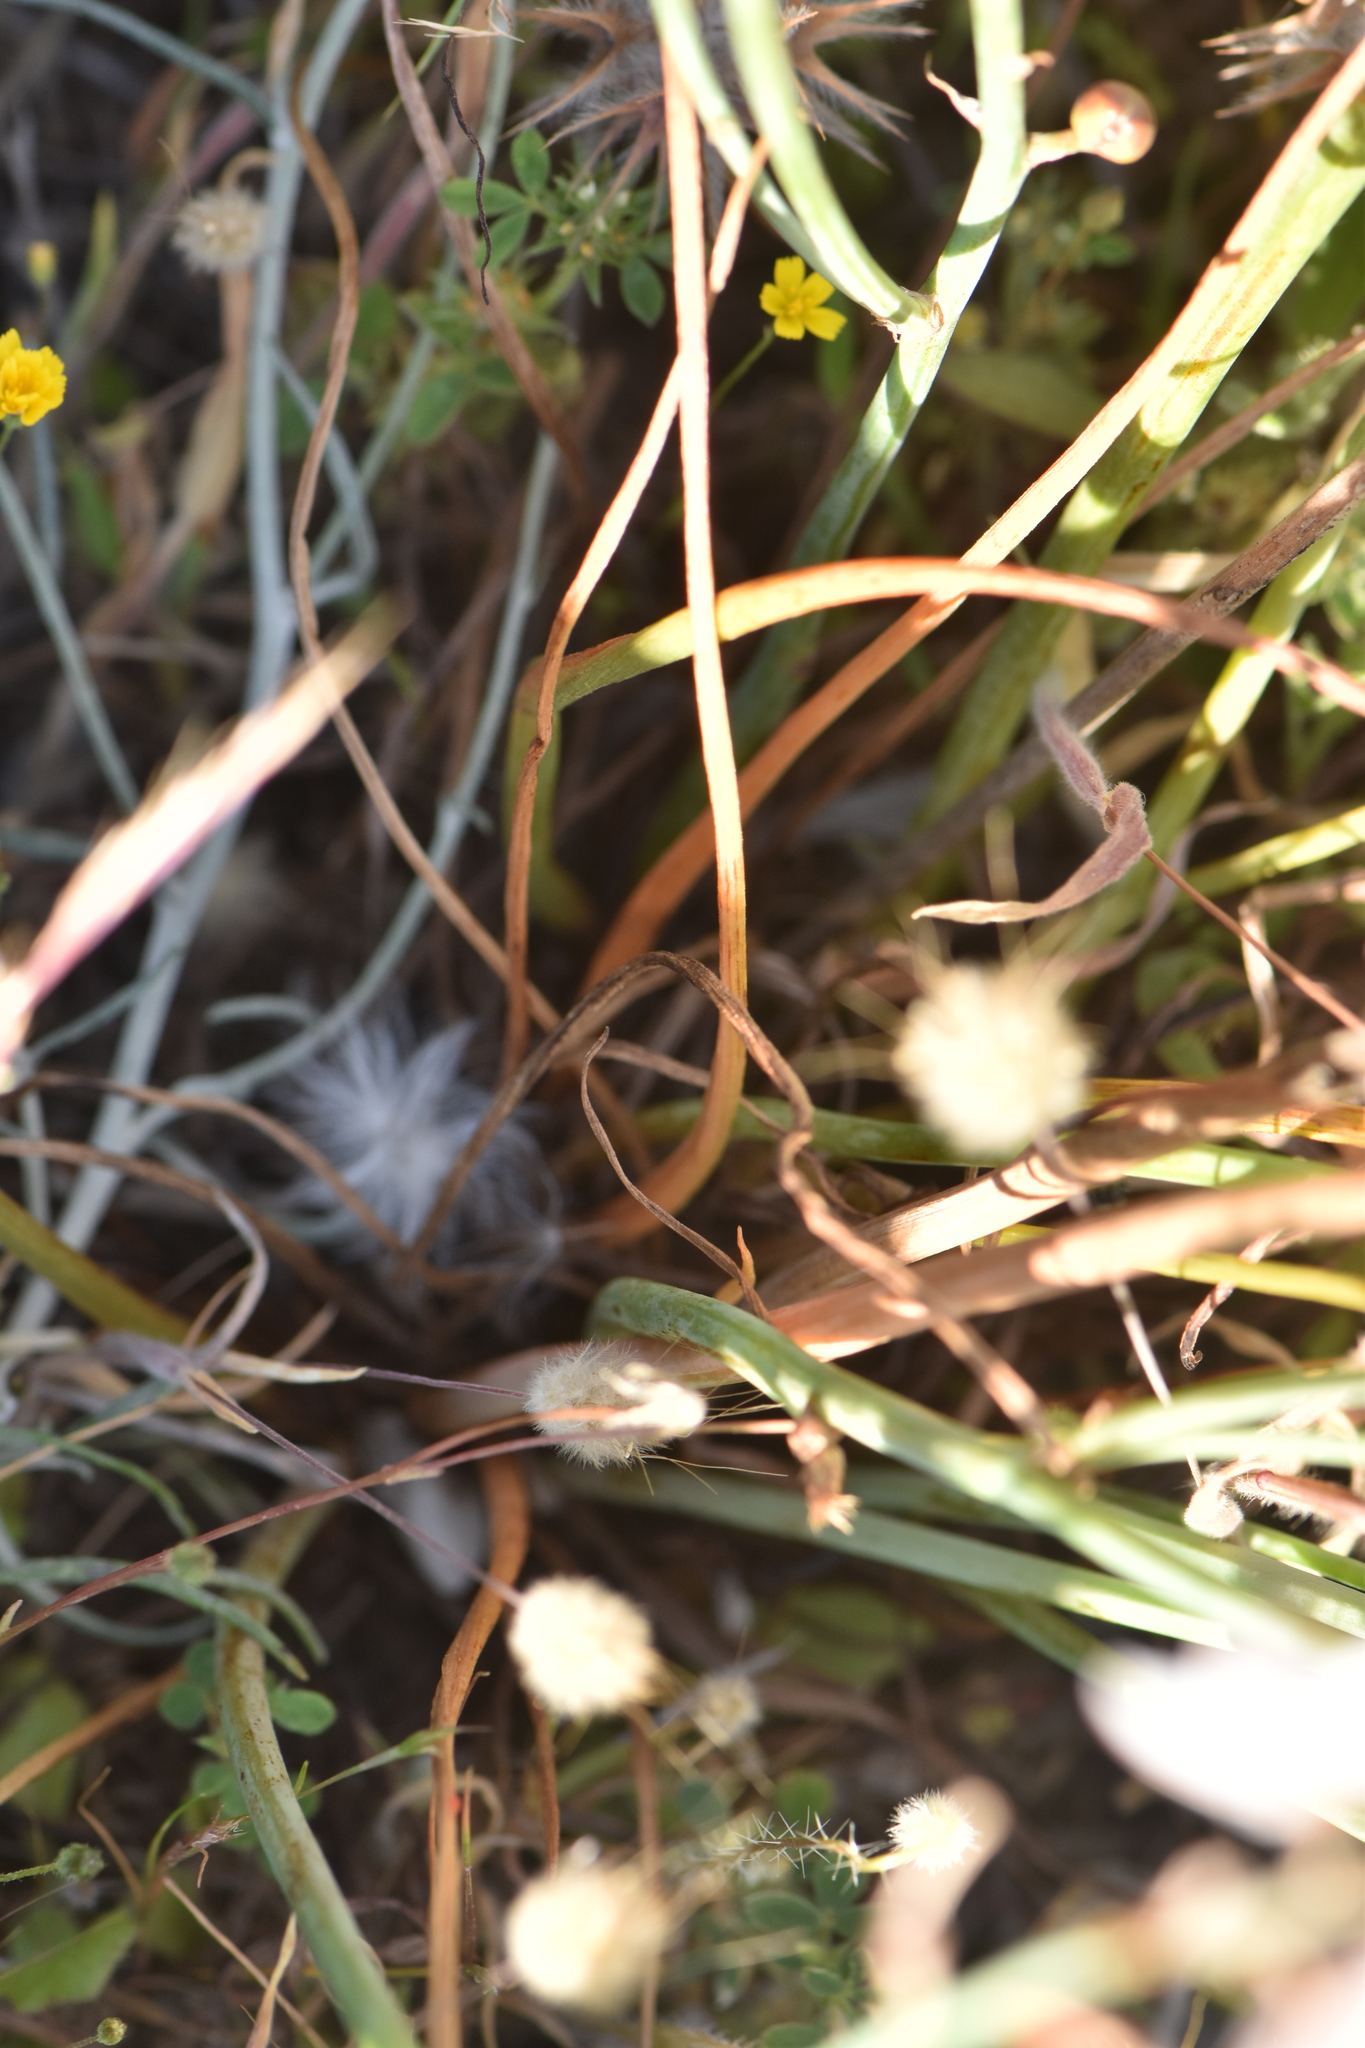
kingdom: Plantae
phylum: Tracheophyta
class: Liliopsida
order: Asparagales
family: Asphodelaceae
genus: Asphodelus
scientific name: Asphodelus tenuifolius
